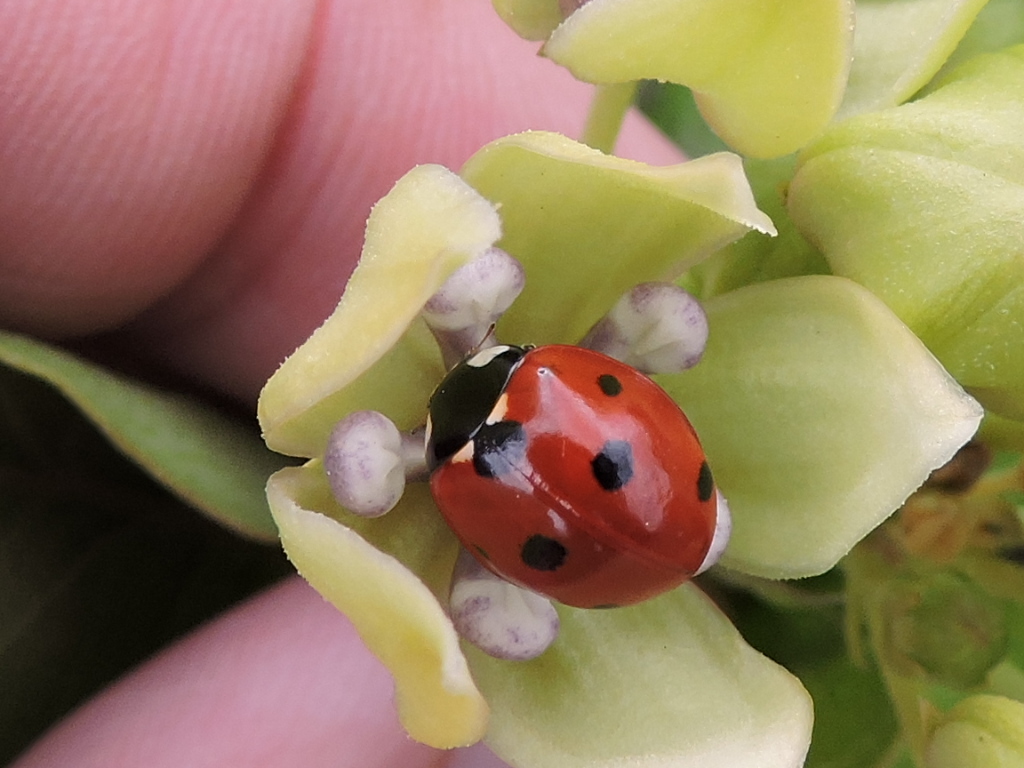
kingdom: Animalia
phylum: Arthropoda
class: Insecta
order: Coleoptera
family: Coccinellidae
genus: Coccinella
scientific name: Coccinella septempunctata
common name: Sevenspotted lady beetle
